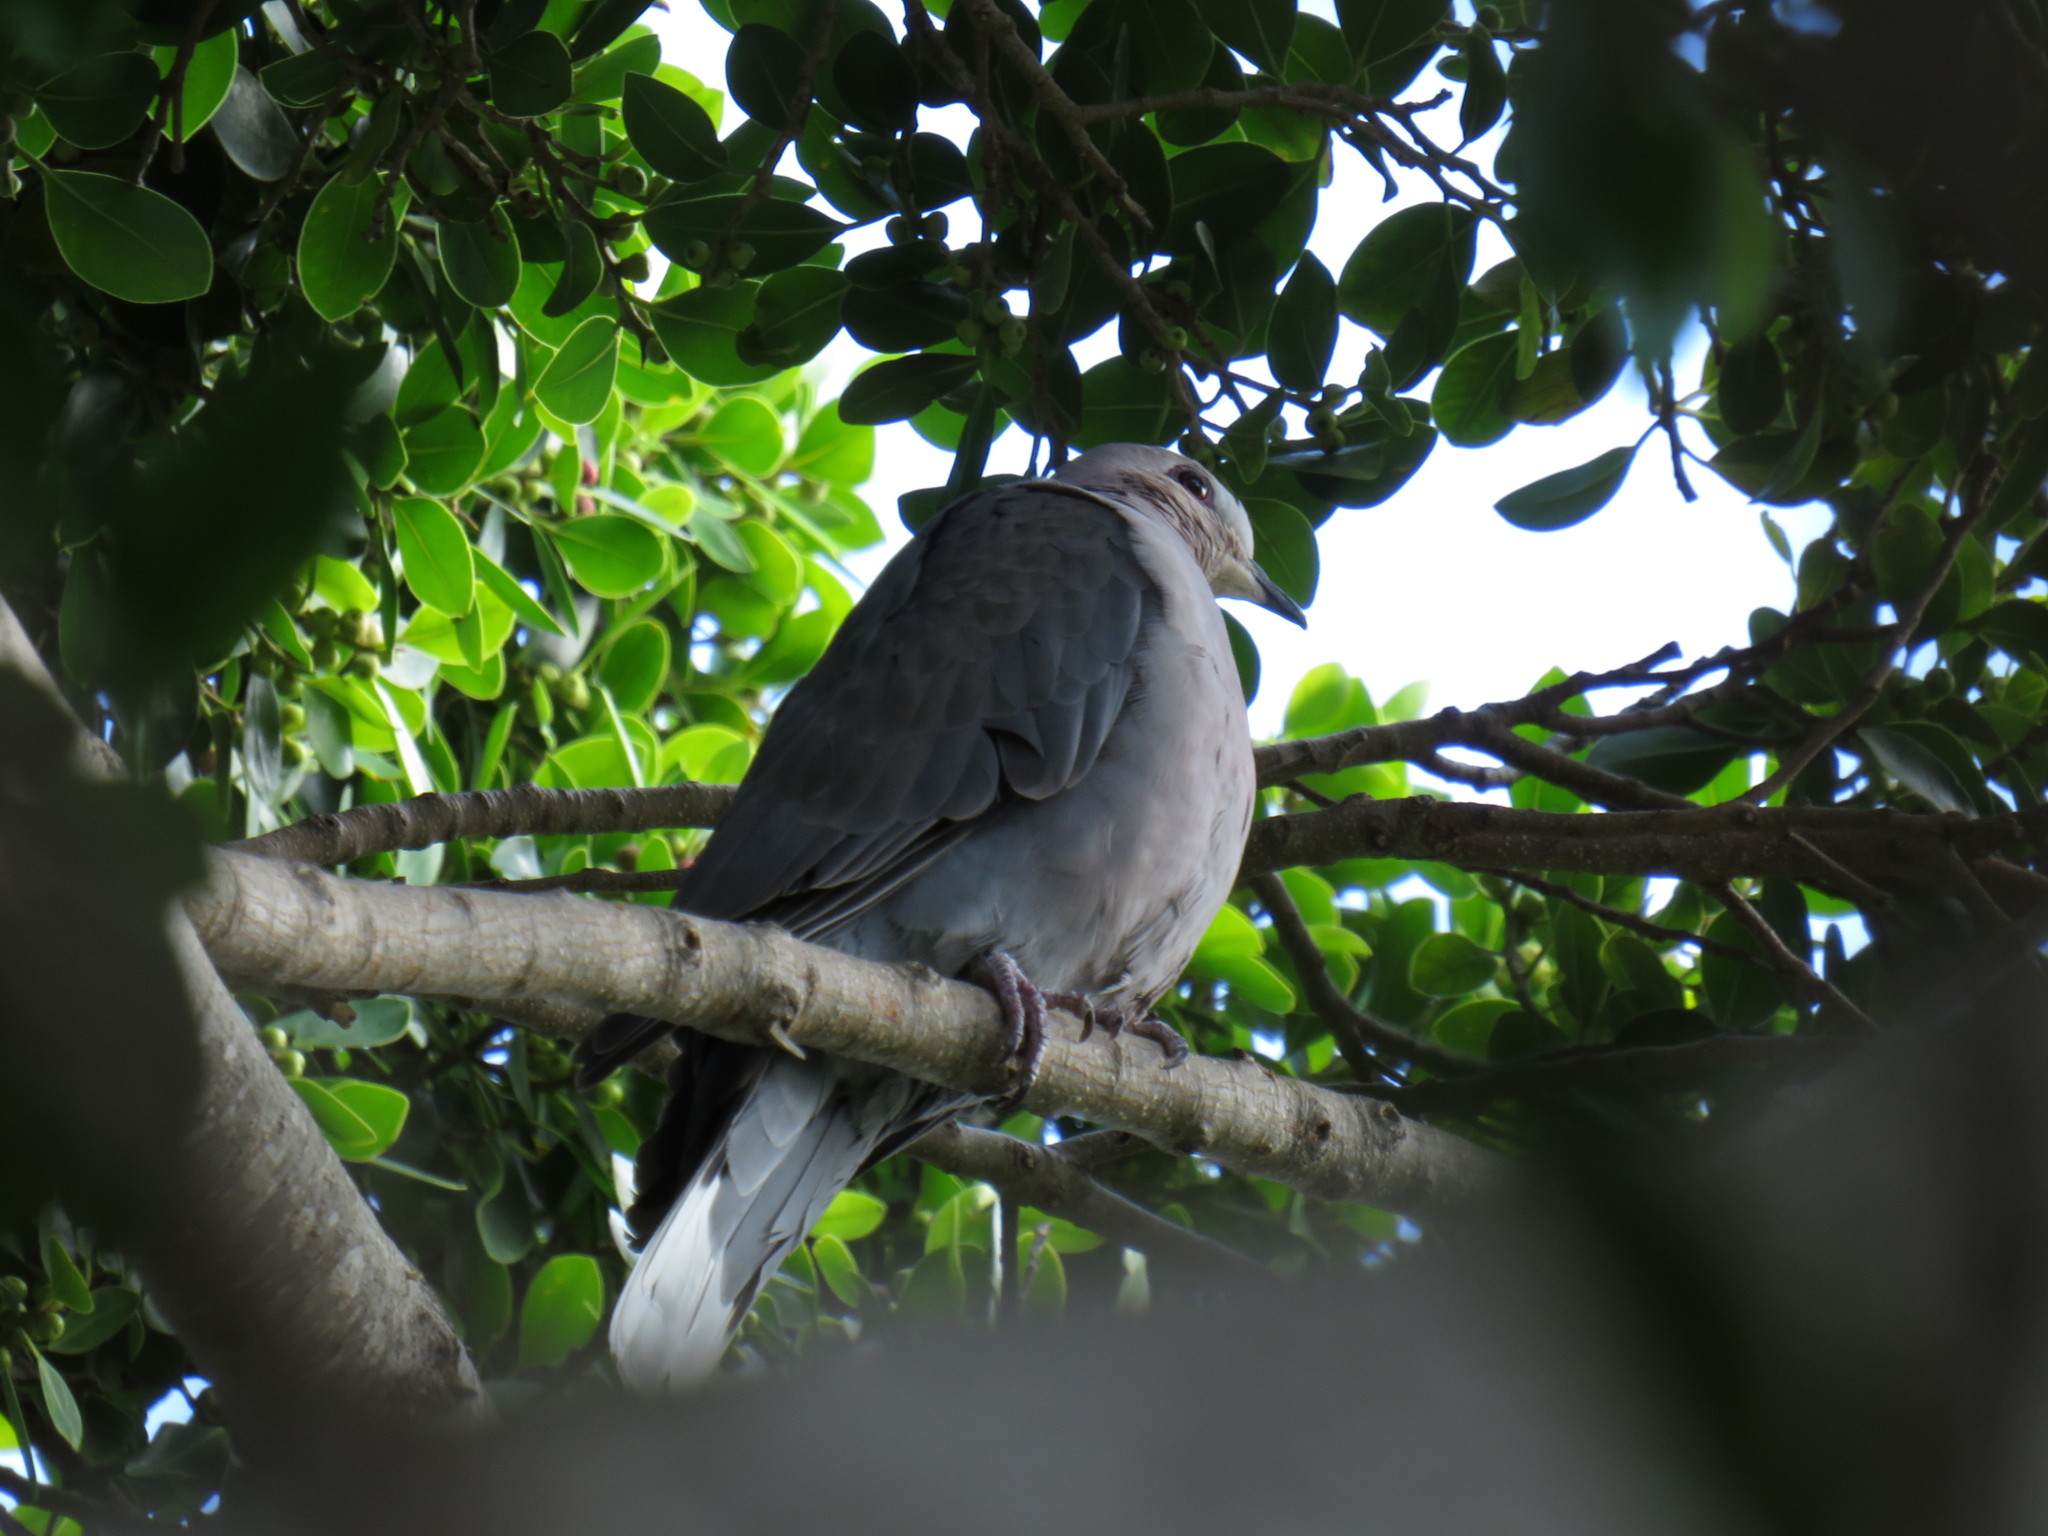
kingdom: Animalia
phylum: Chordata
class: Aves
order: Columbiformes
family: Columbidae
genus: Streptopelia
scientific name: Streptopelia semitorquata
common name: Red-eyed dove
